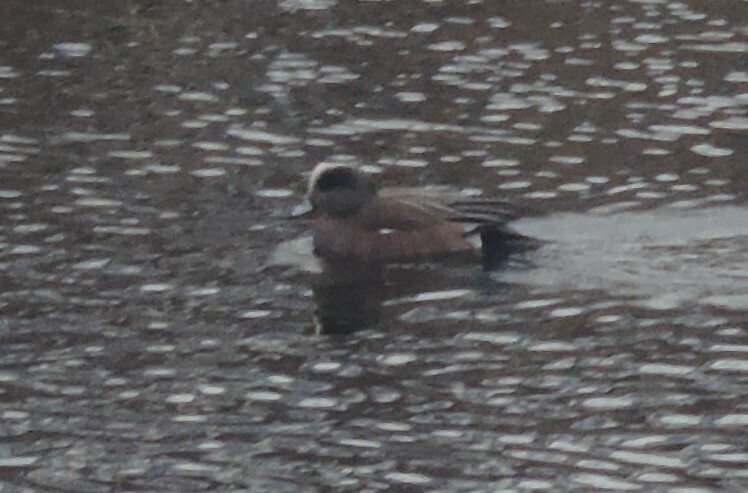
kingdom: Animalia
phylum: Chordata
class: Aves
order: Anseriformes
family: Anatidae
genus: Mareca
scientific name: Mareca americana
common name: American wigeon
